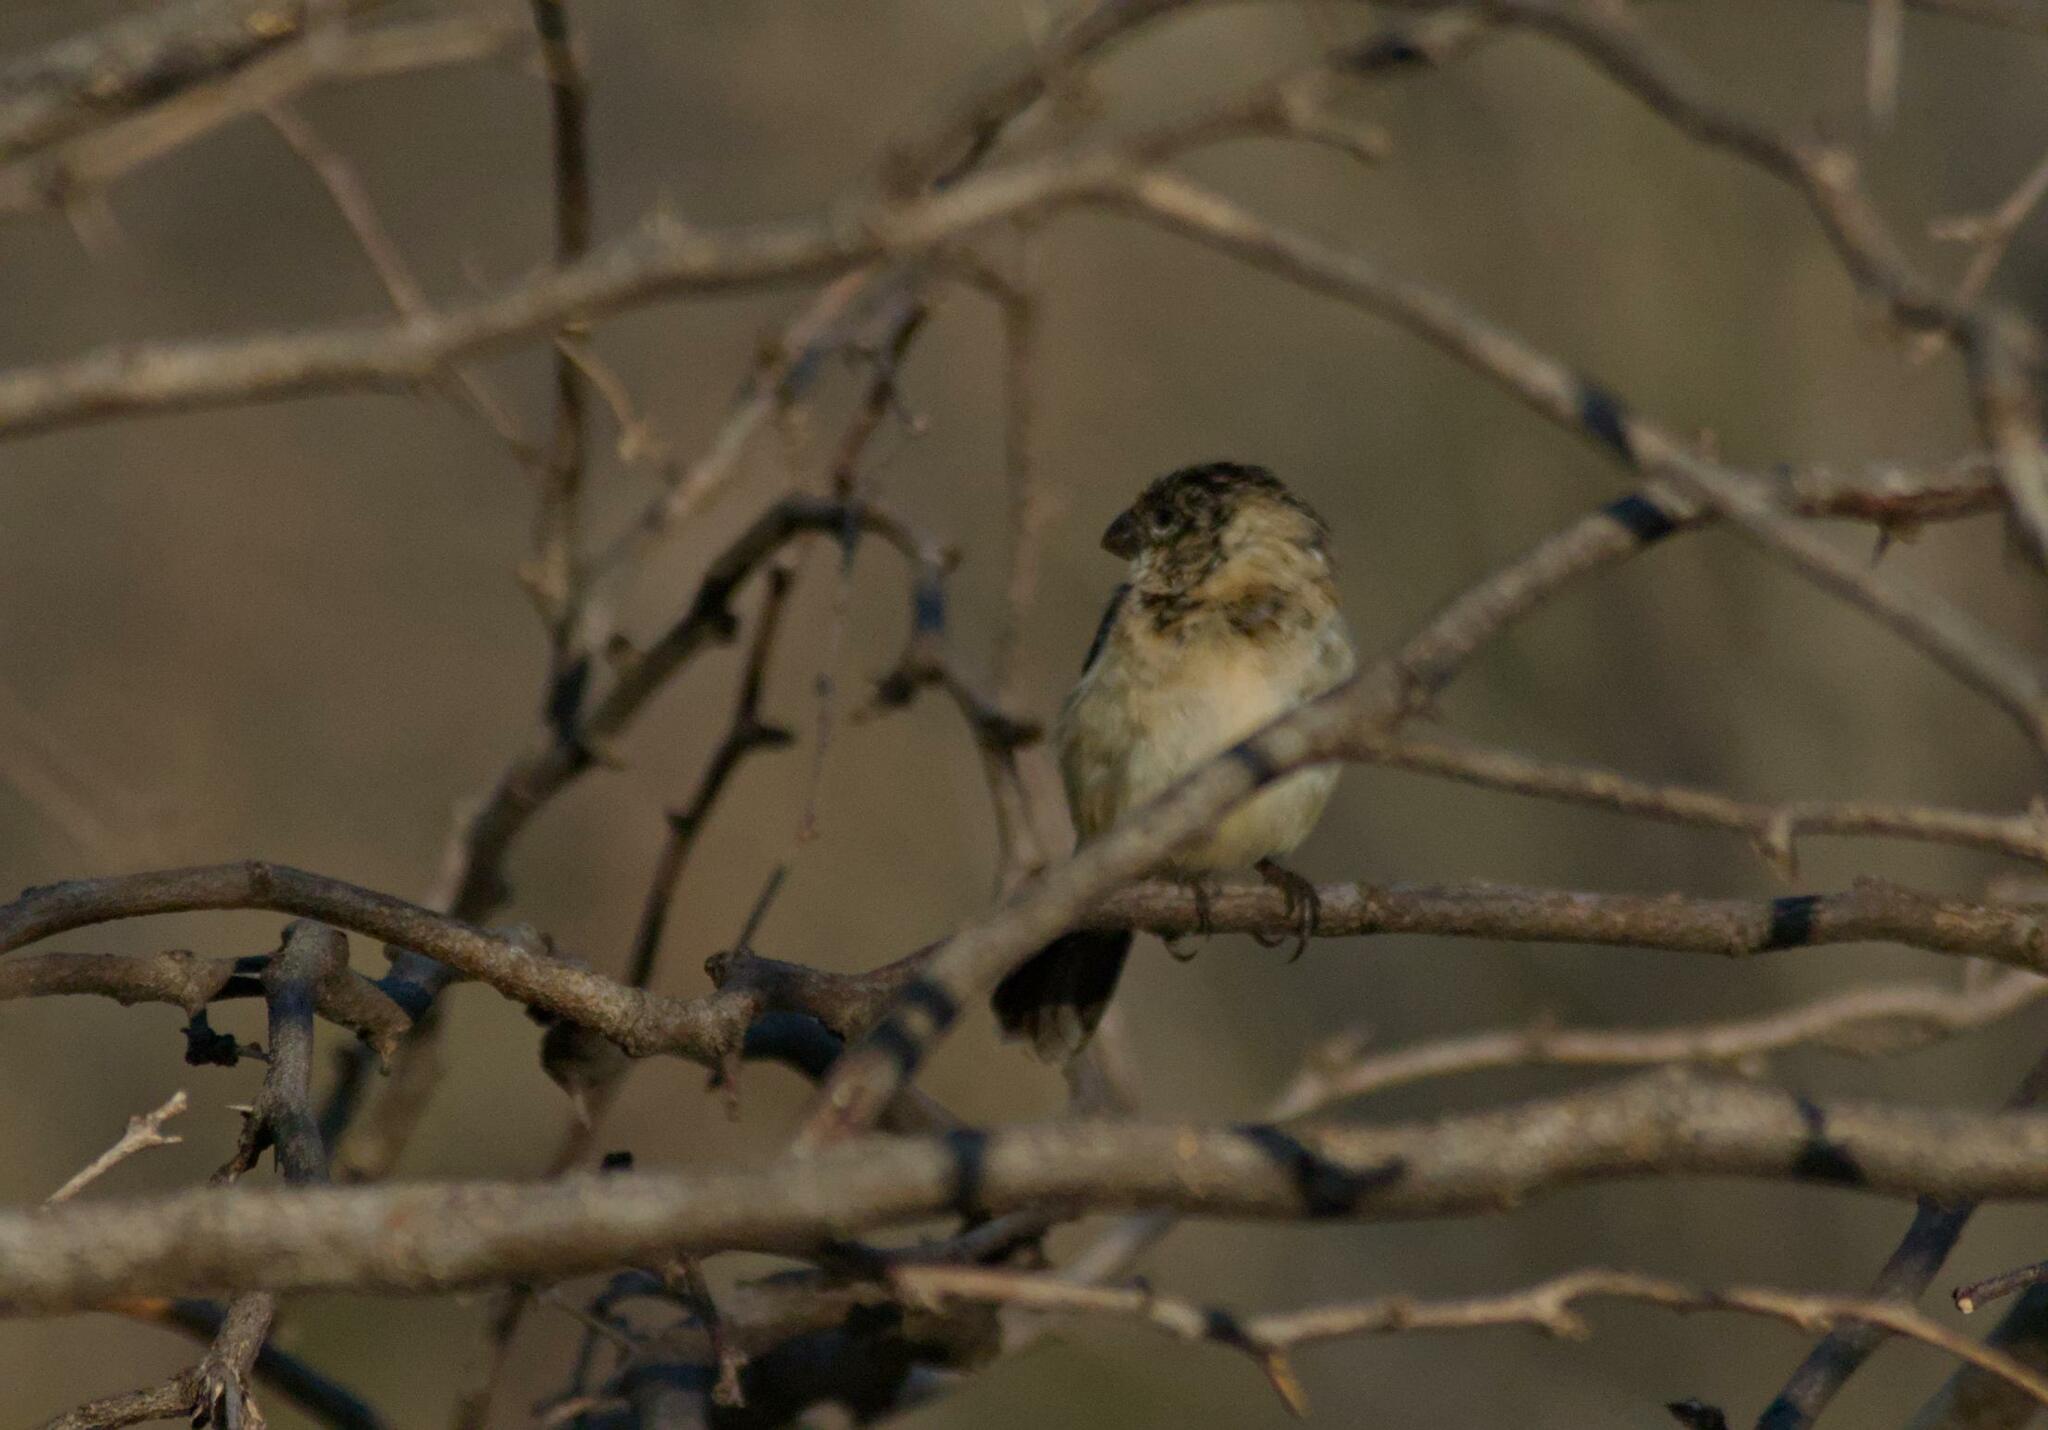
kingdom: Animalia
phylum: Chordata
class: Aves
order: Passeriformes
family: Thraupidae
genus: Sporophila
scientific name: Sporophila morelleti
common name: Morelet's seedeater
